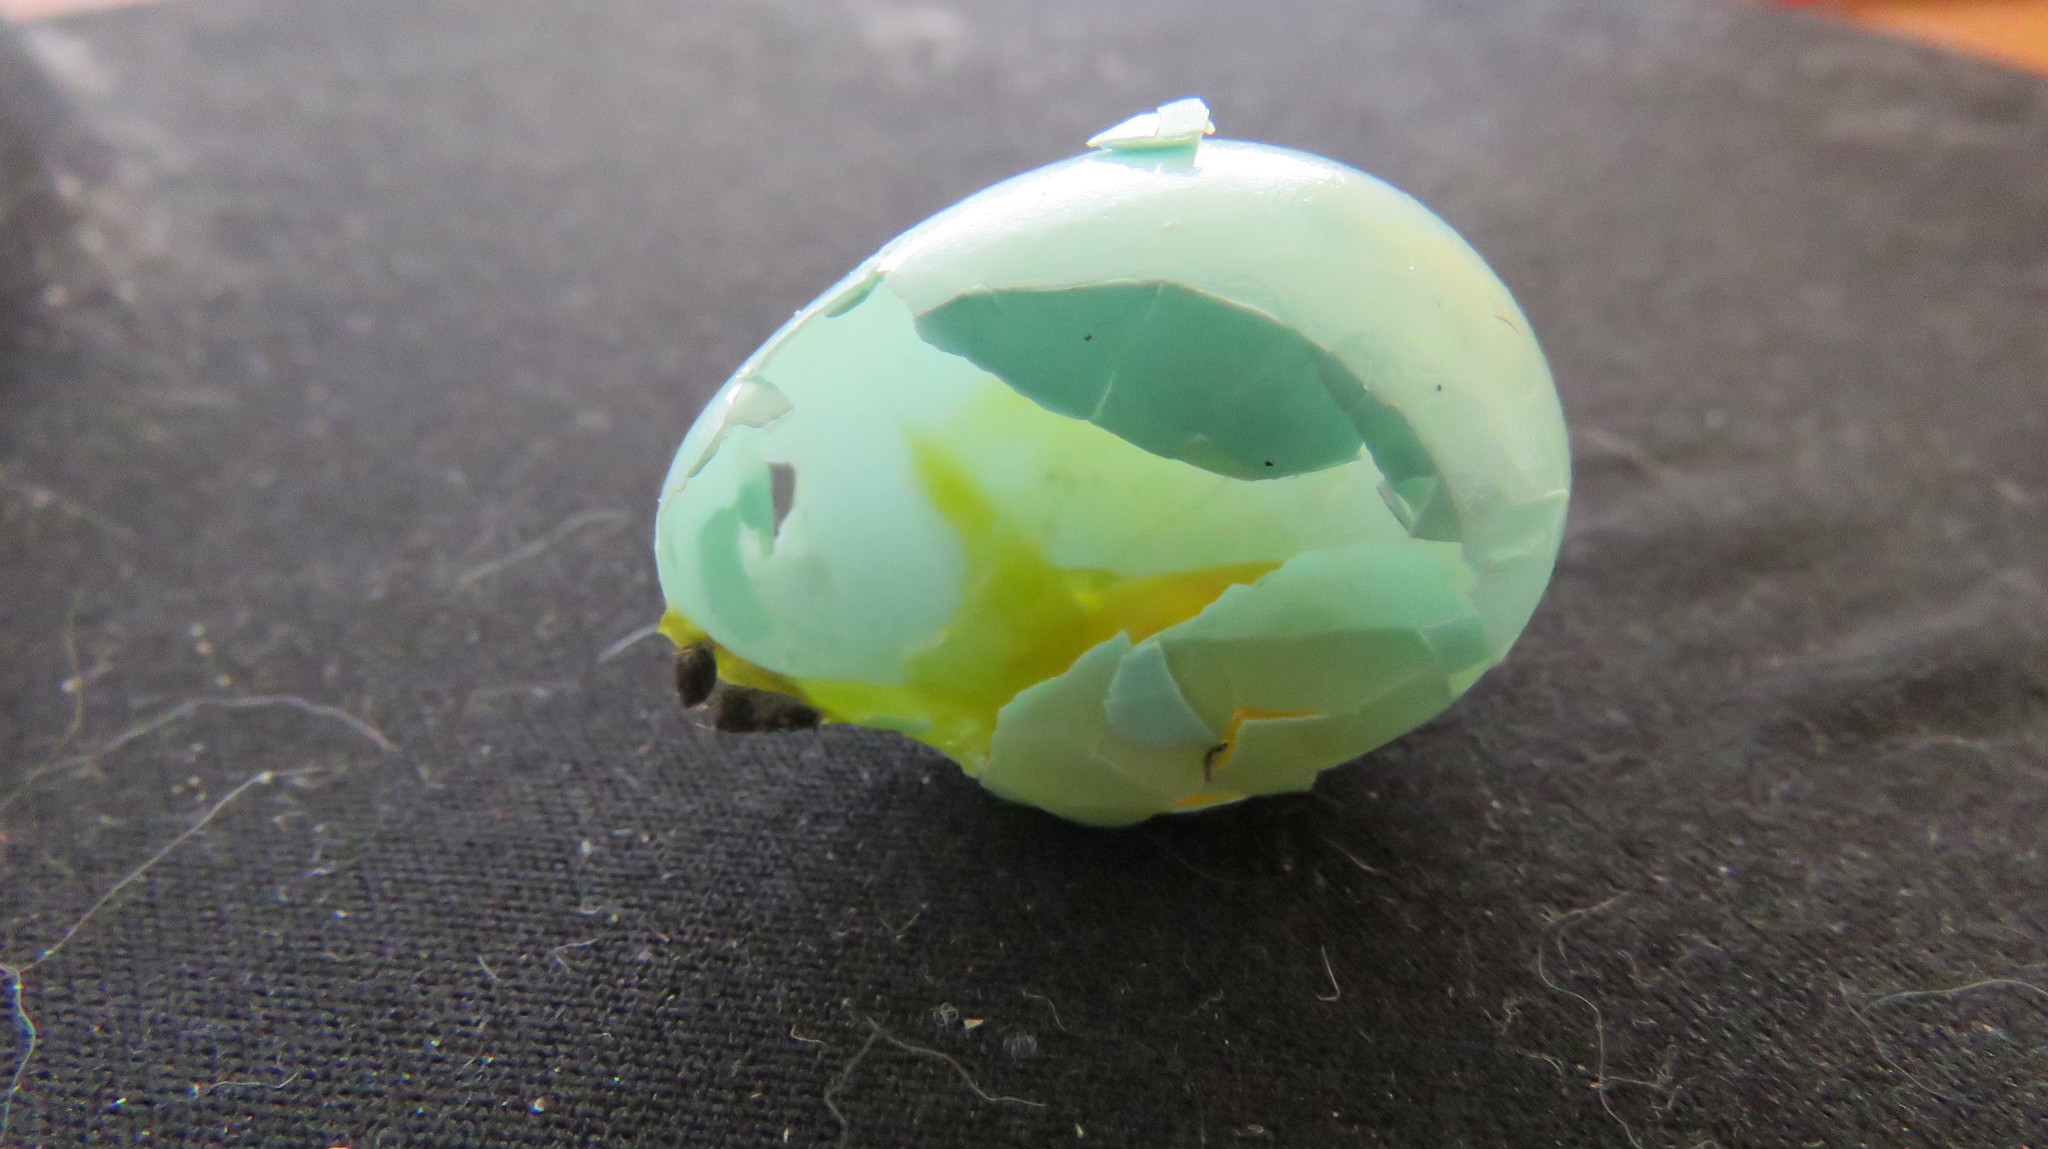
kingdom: Animalia
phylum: Chordata
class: Aves
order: Passeriformes
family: Turdidae
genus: Turdus
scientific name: Turdus migratorius
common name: American robin
